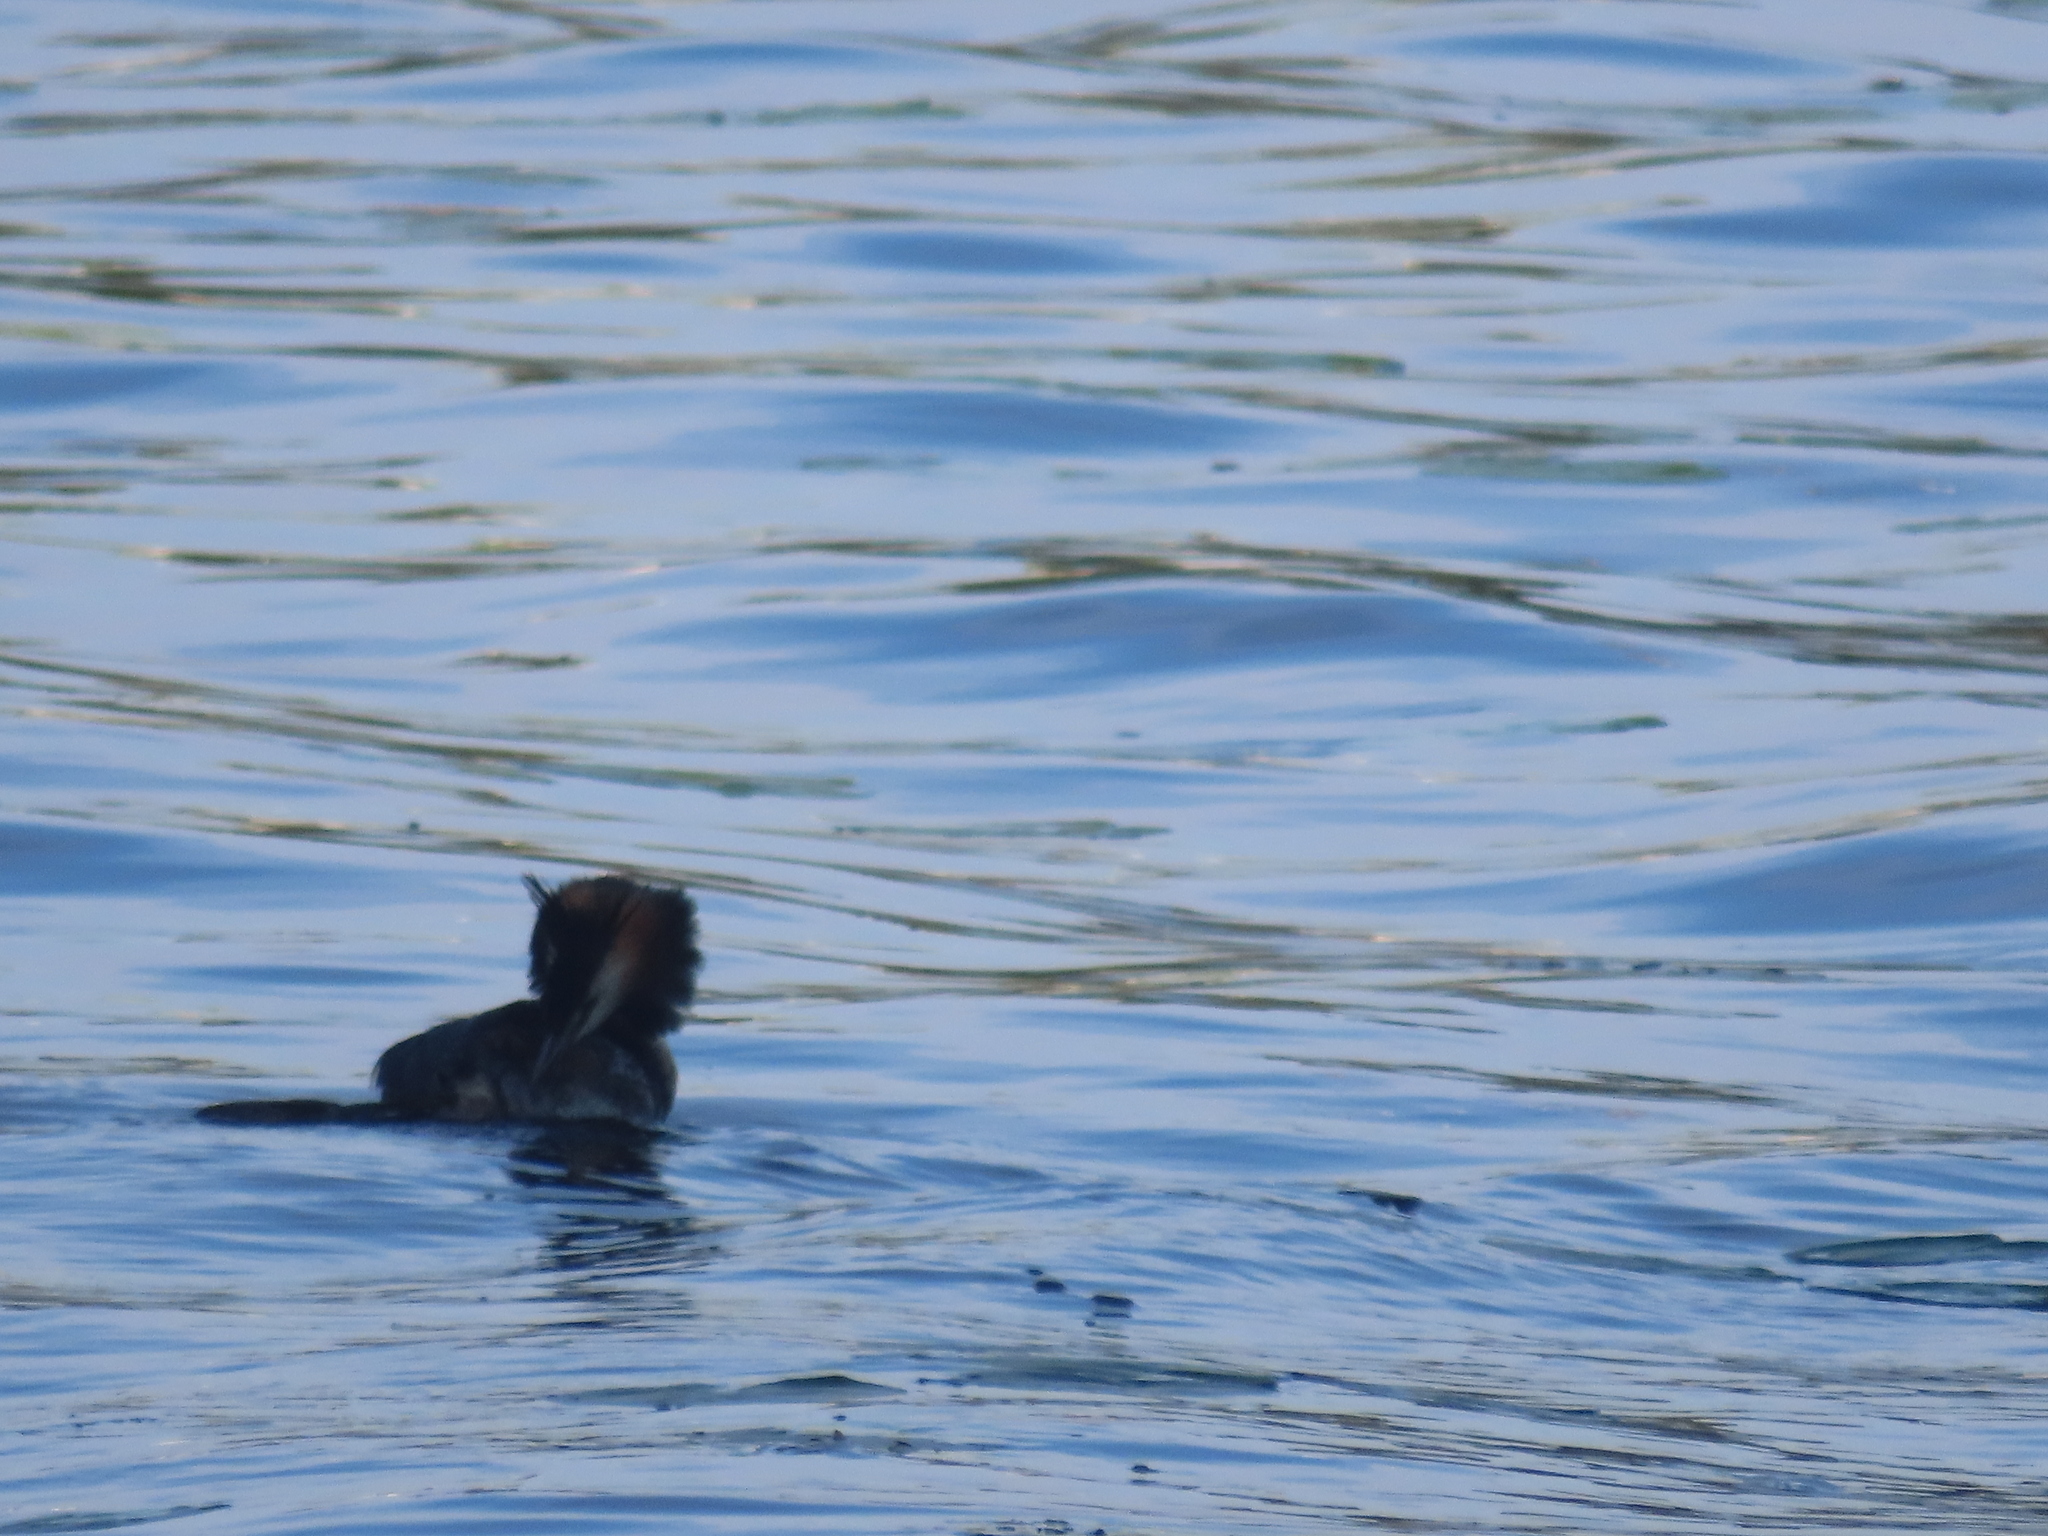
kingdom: Animalia
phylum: Chordata
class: Aves
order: Podicipediformes
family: Podicipedidae
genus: Podiceps
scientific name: Podiceps cristatus
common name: Great crested grebe
